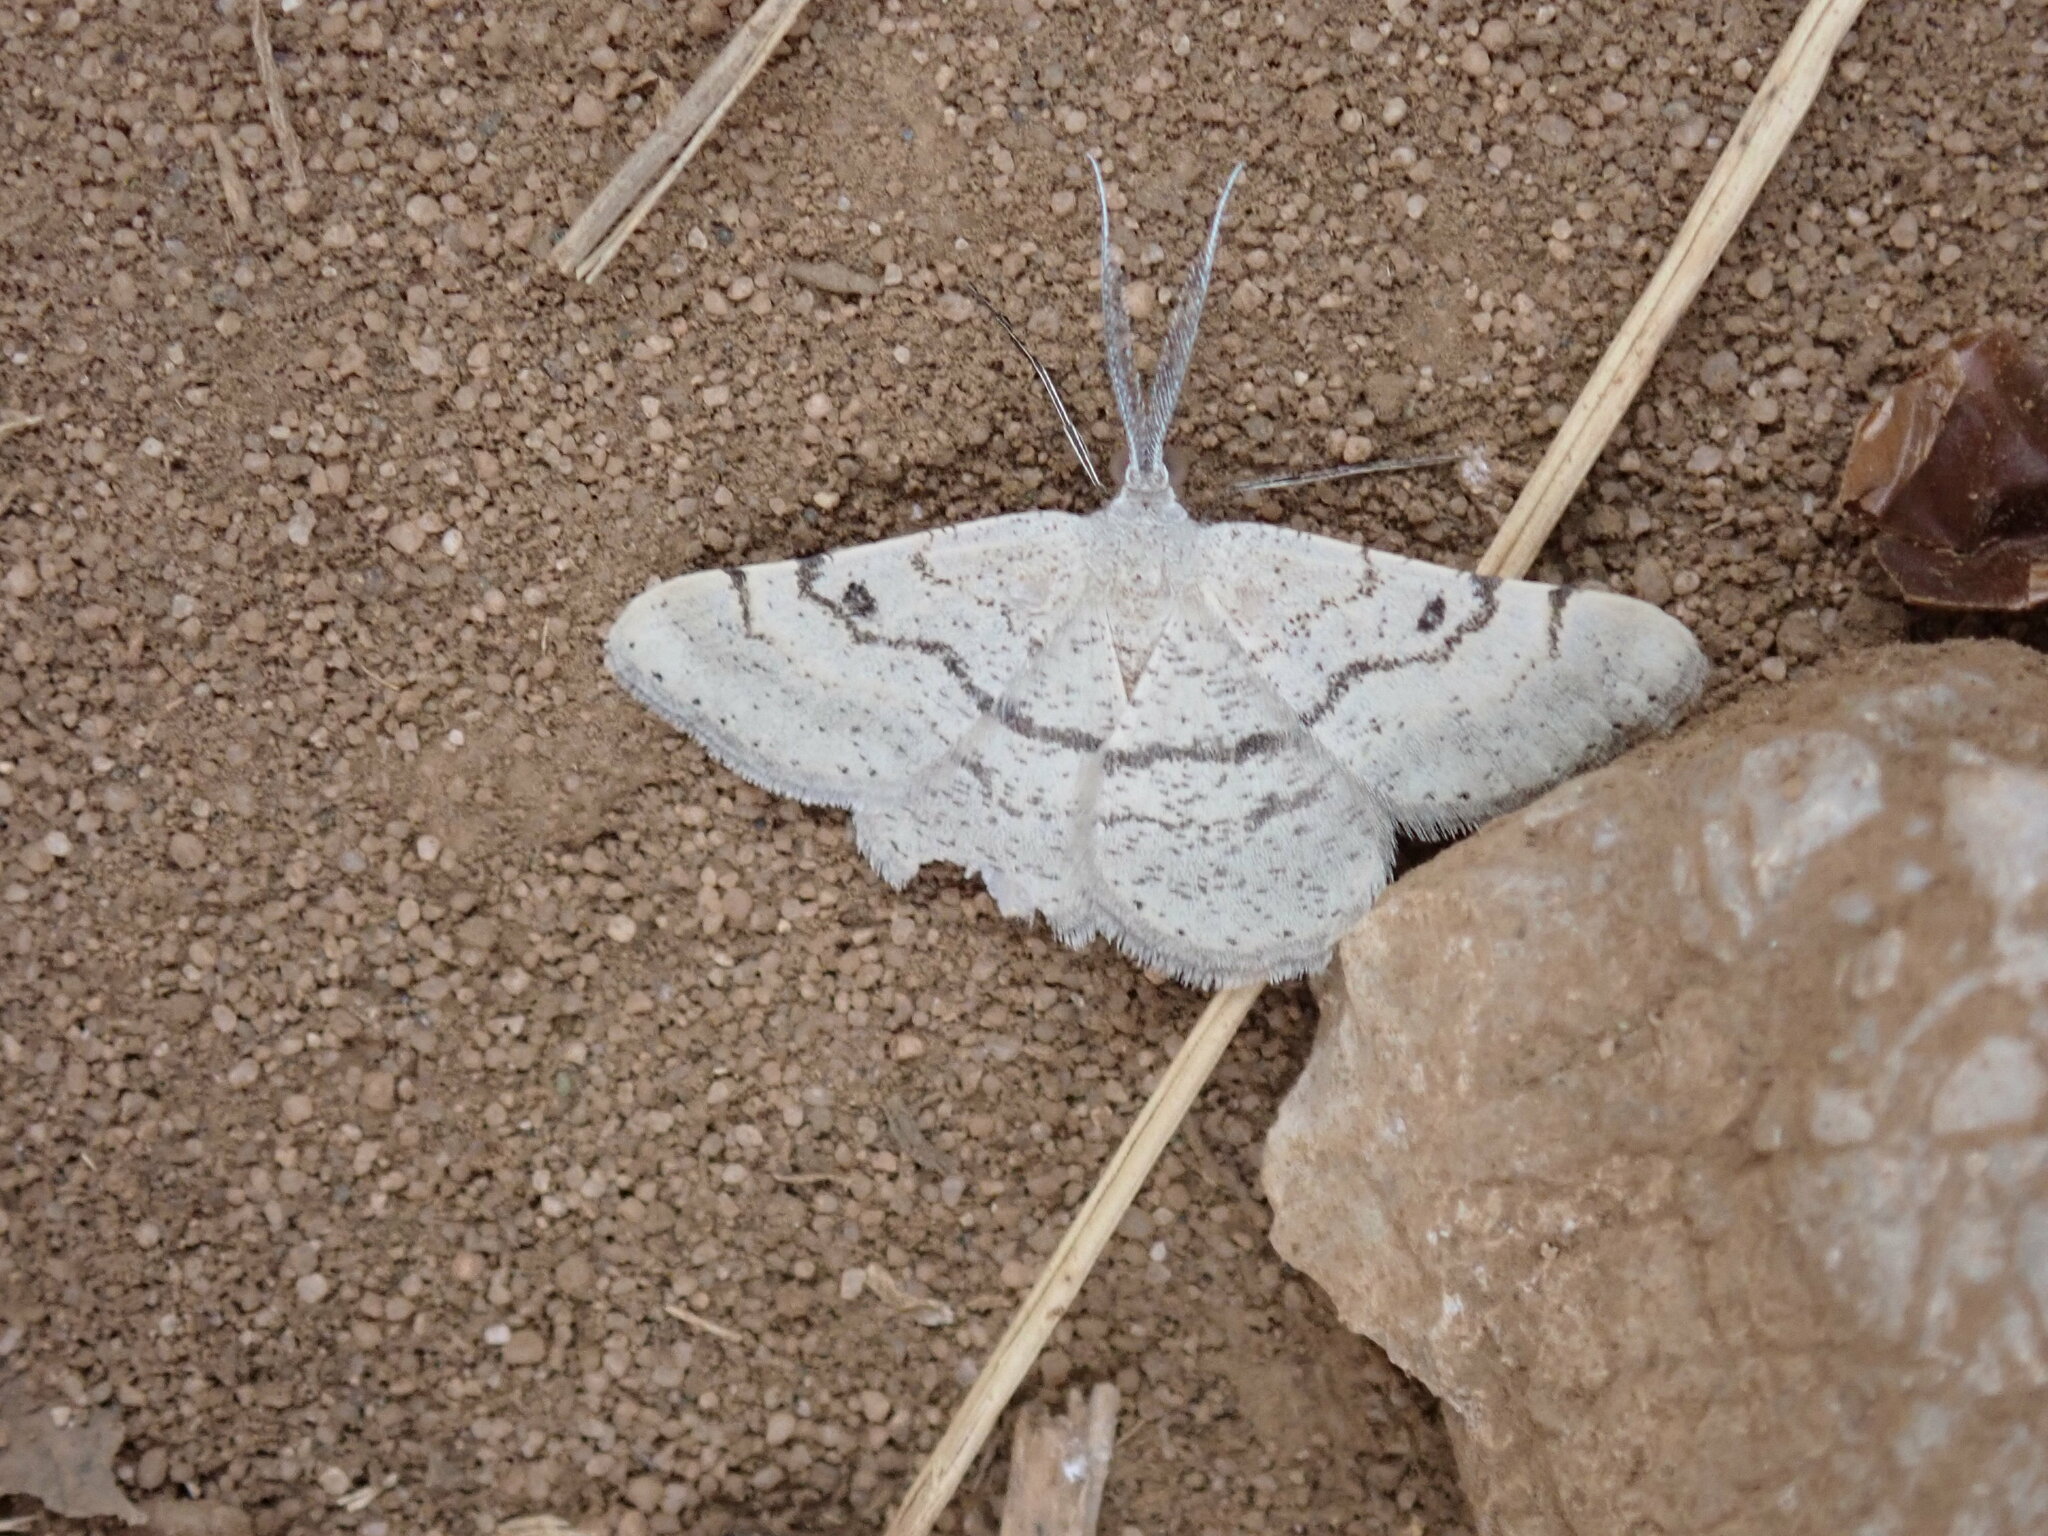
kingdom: Animalia
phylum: Arthropoda
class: Insecta
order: Lepidoptera
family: Geometridae
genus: Acanthovalva
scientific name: Acanthovalva inconspicuaria
